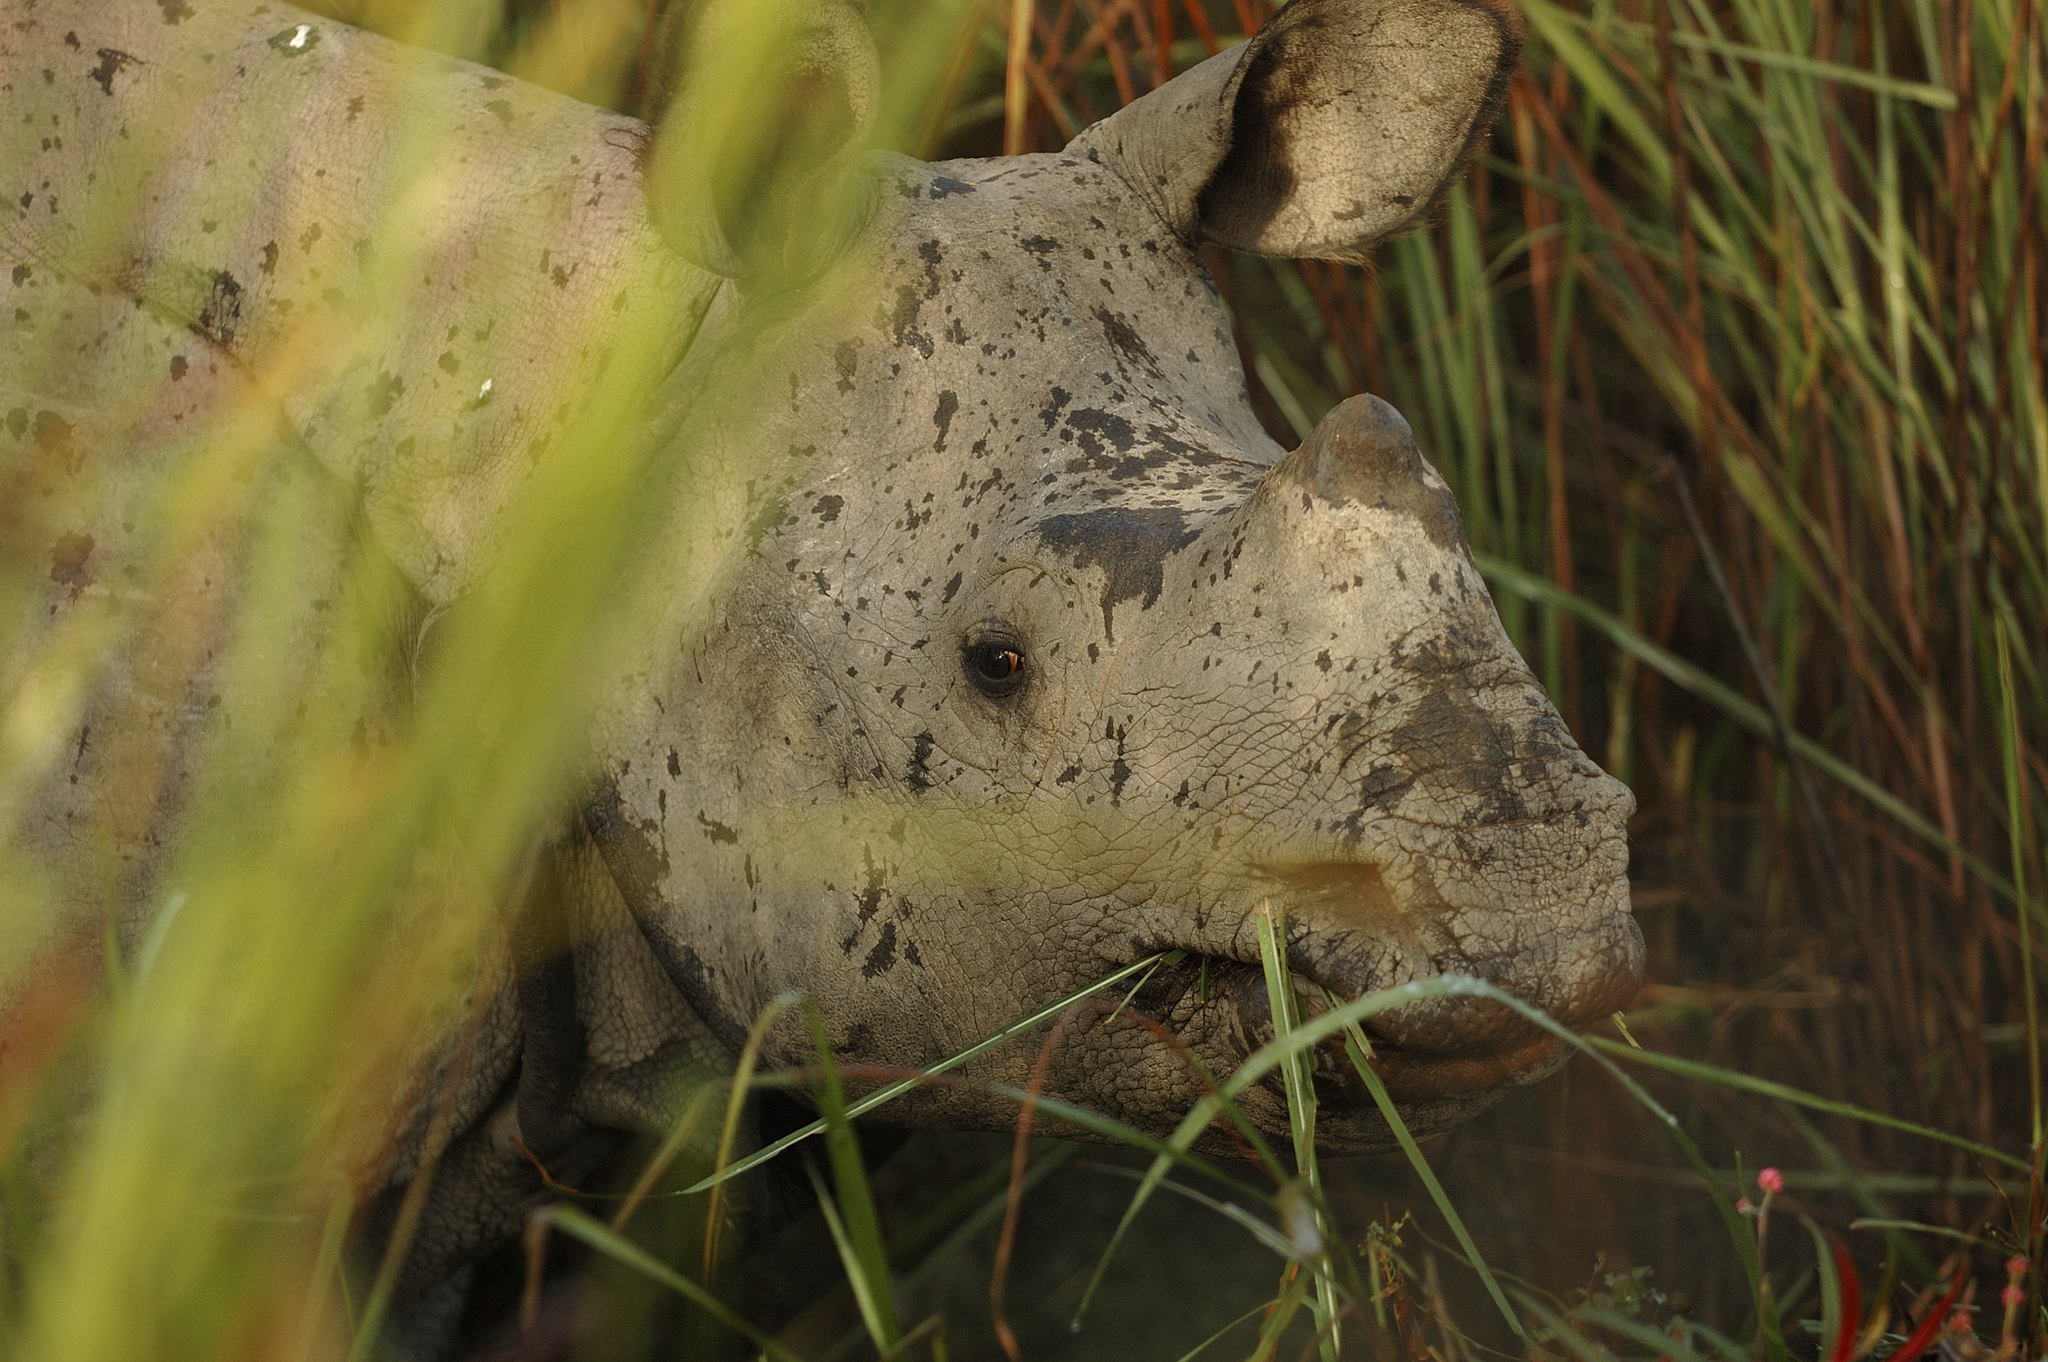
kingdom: Animalia
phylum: Chordata
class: Mammalia
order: Perissodactyla
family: Rhinocerotidae
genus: Rhinoceros
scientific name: Rhinoceros unicornis
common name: Indian rhinoceros
